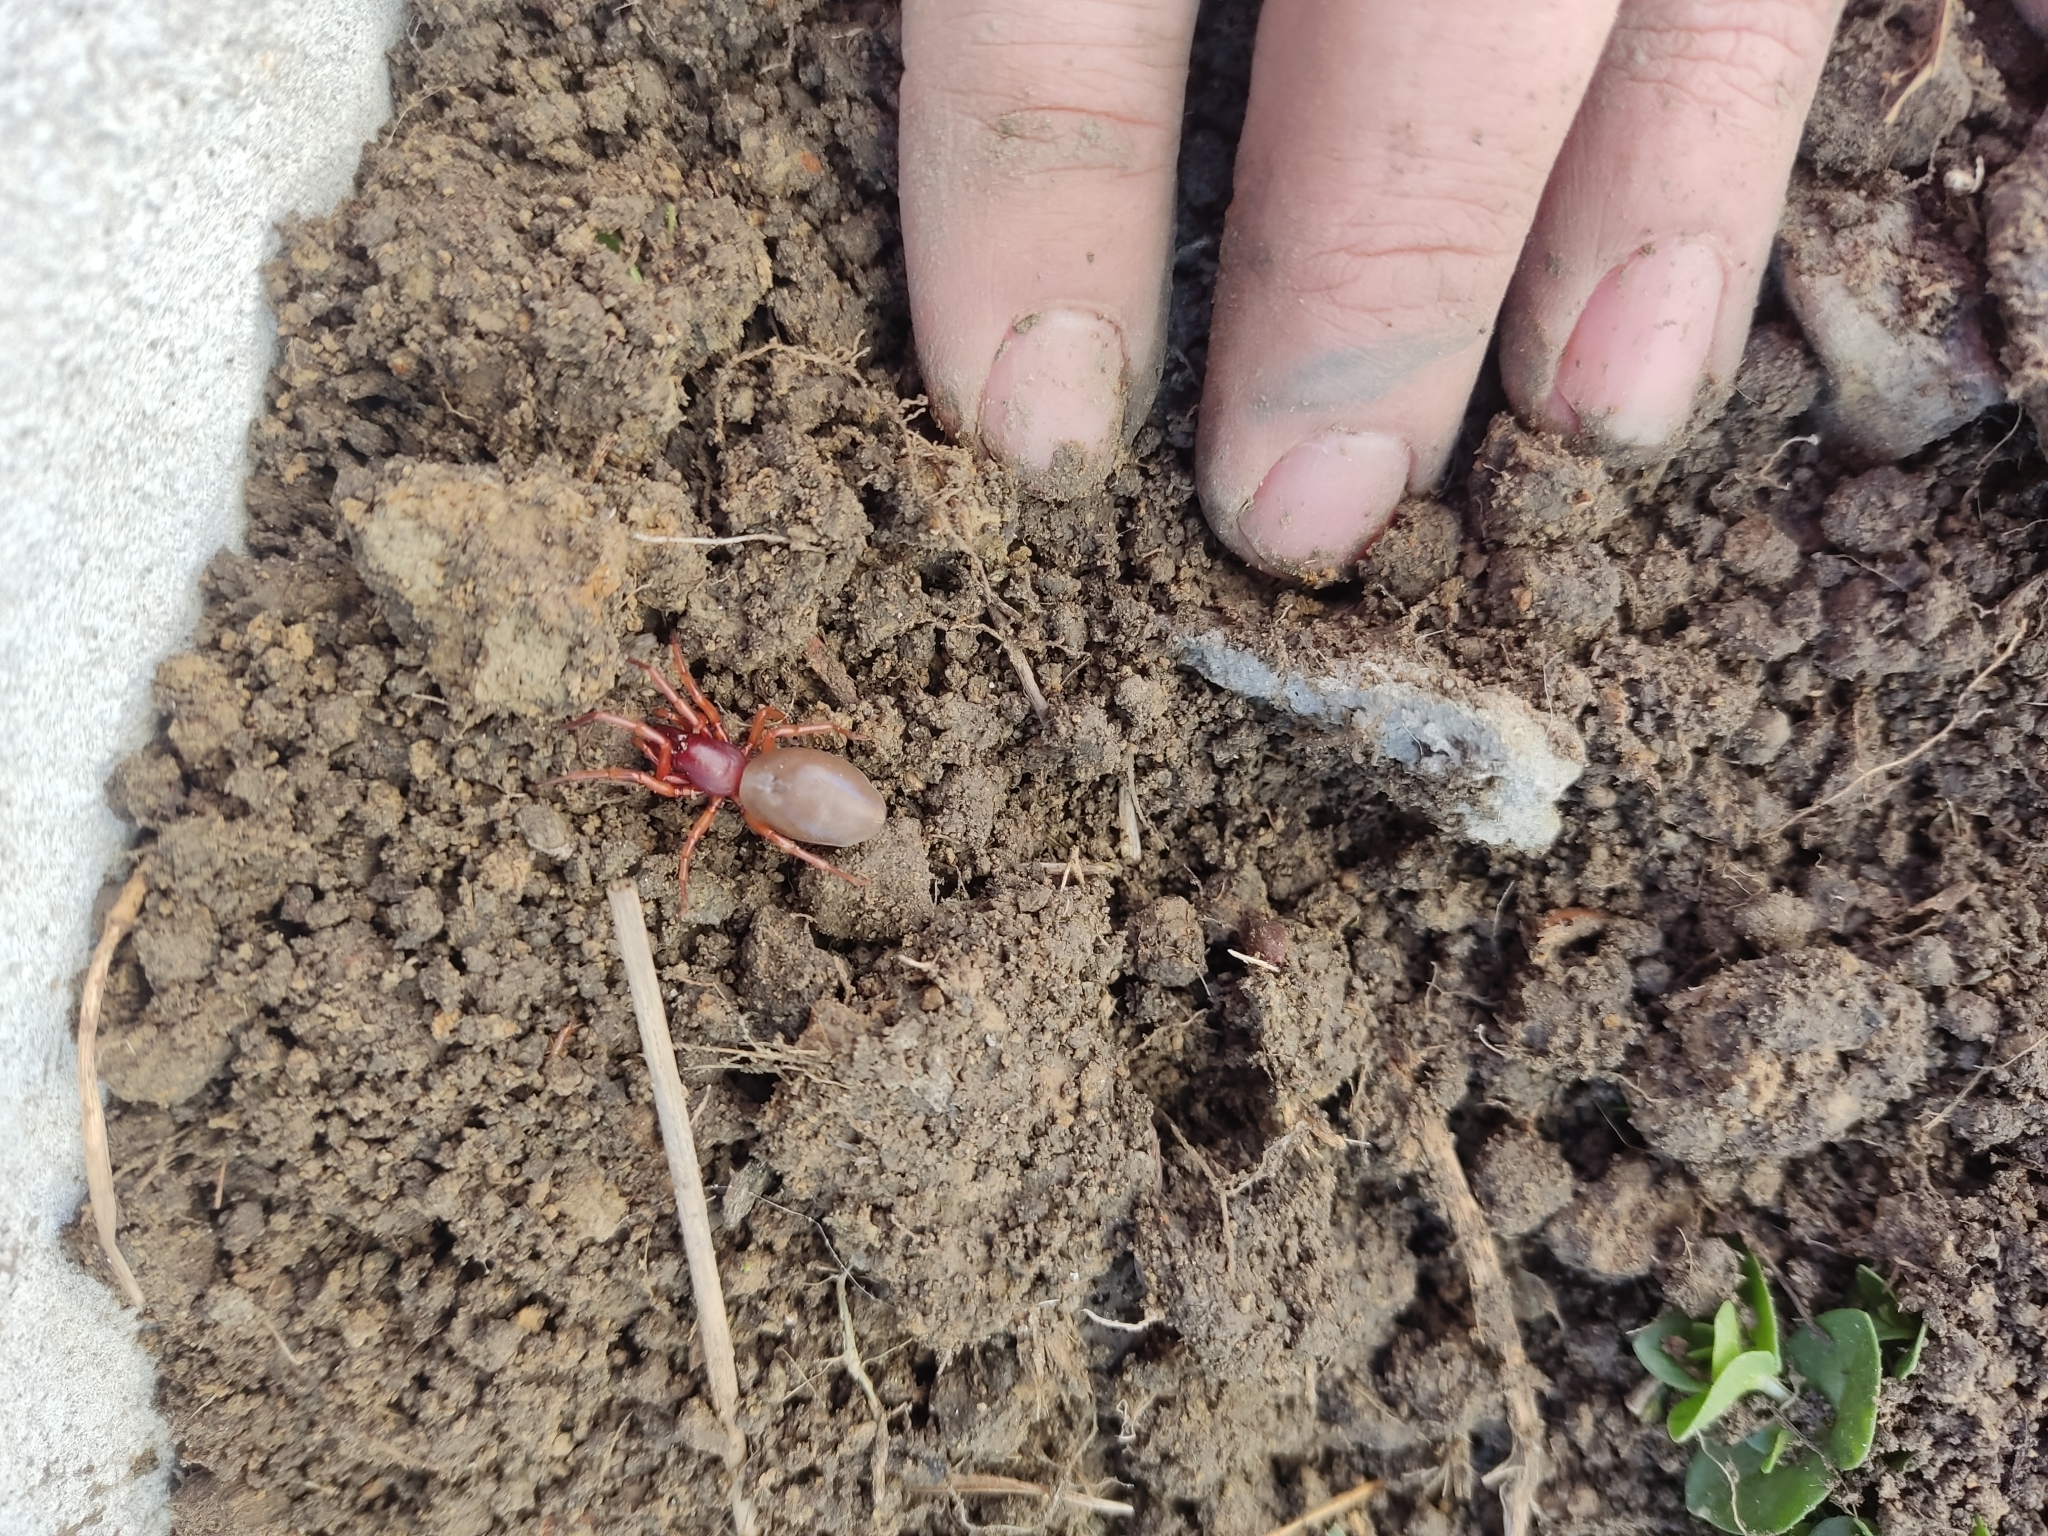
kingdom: Animalia
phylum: Arthropoda
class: Arachnida
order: Araneae
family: Dysderidae
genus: Dysdera
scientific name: Dysdera crocata
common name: Woodlouse spider
